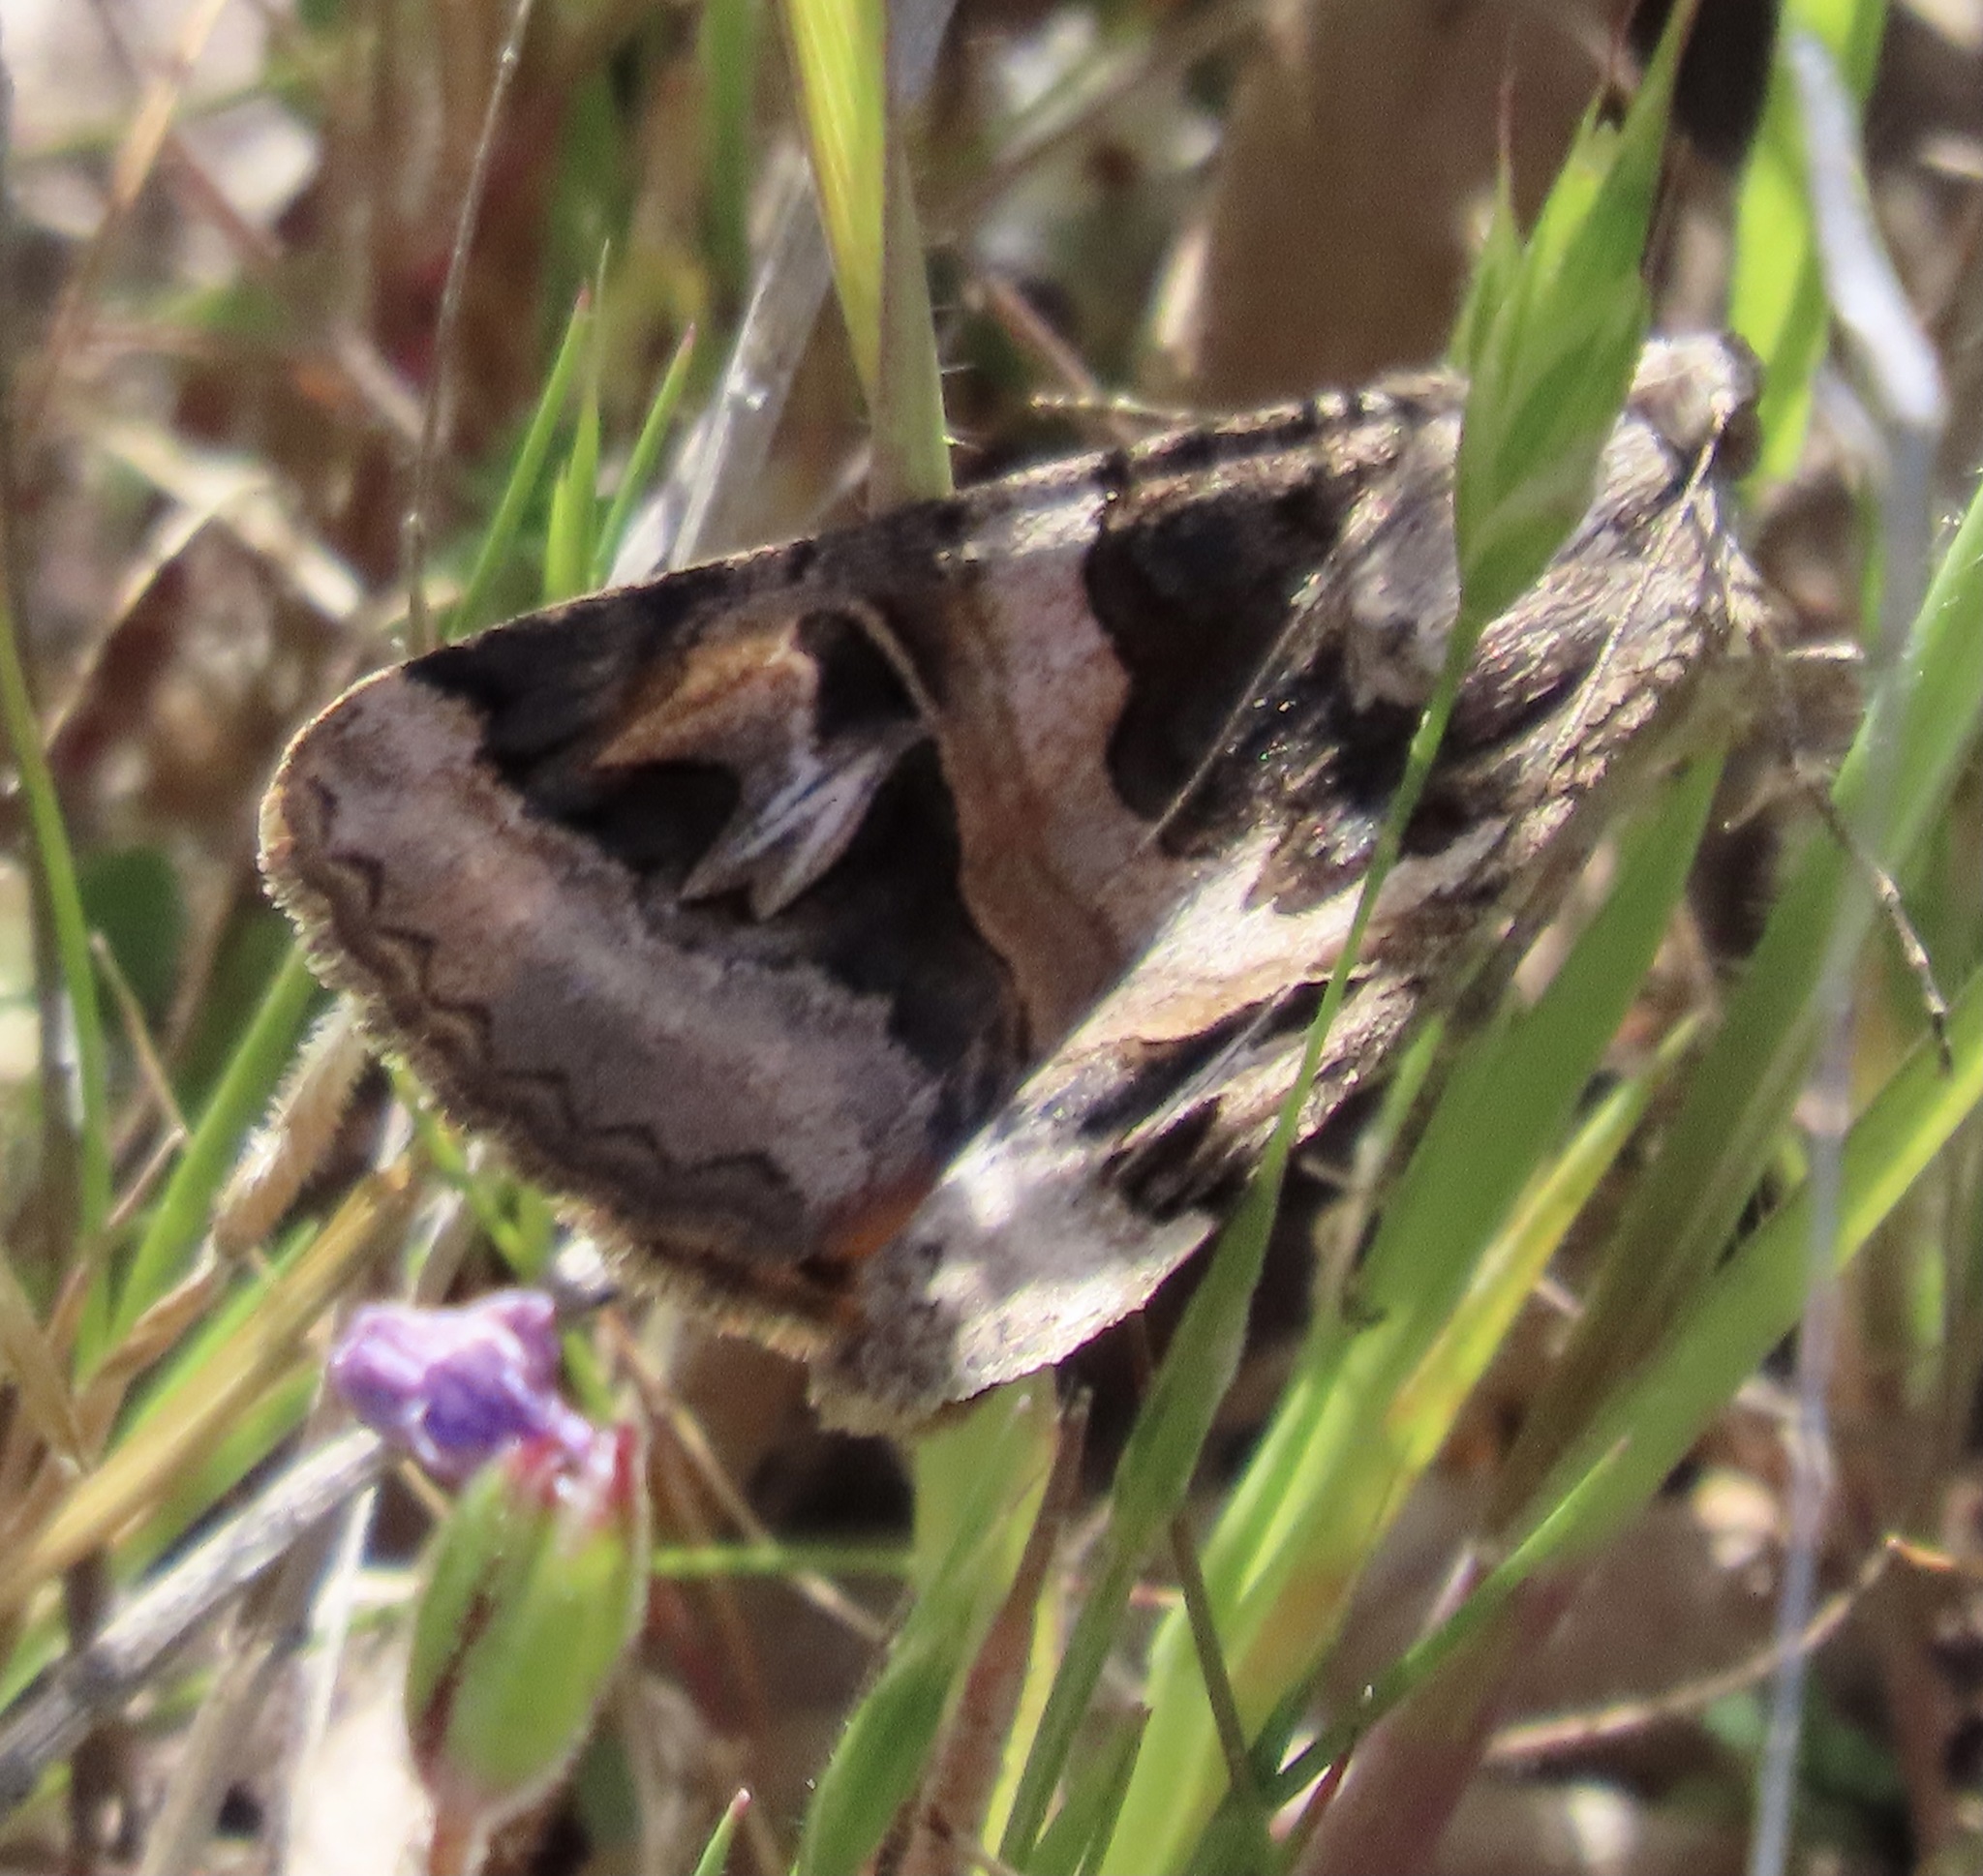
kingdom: Animalia
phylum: Arthropoda
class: Insecta
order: Lepidoptera
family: Erebidae
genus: Drasteria
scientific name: Drasteria divergens
